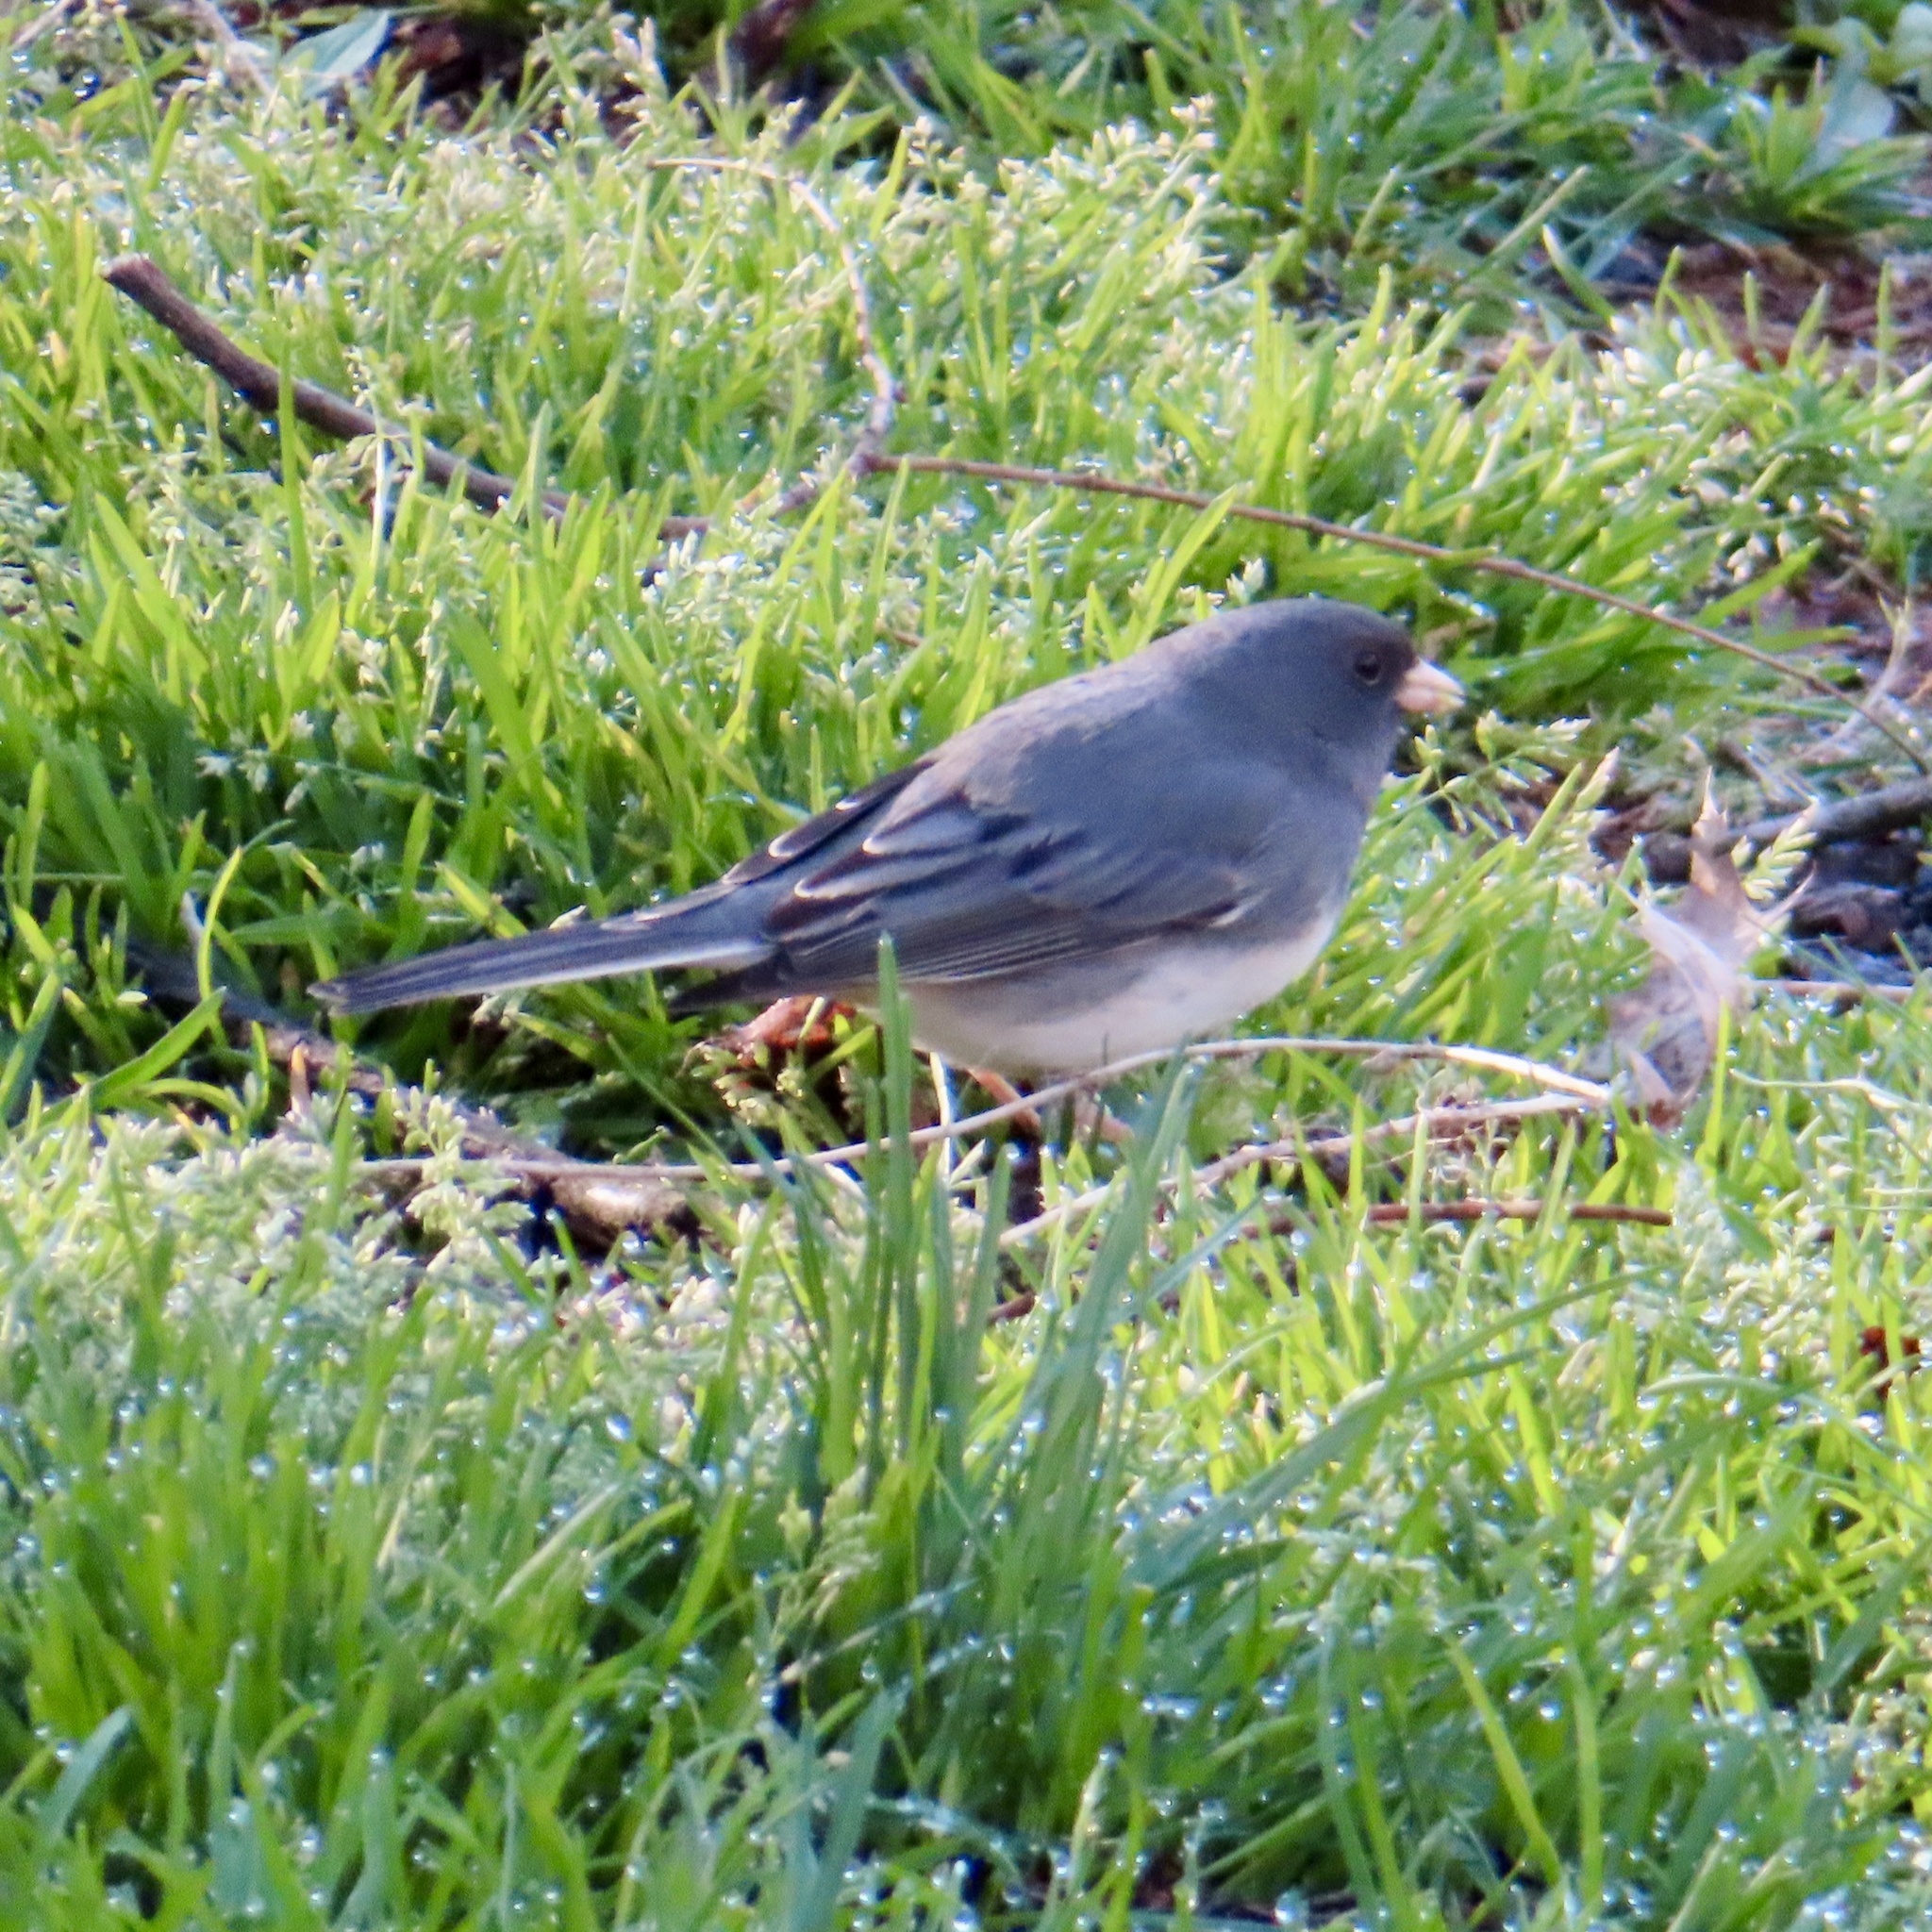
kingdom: Animalia
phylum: Chordata
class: Aves
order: Passeriformes
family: Passerellidae
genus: Junco
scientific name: Junco hyemalis
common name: Dark-eyed junco
